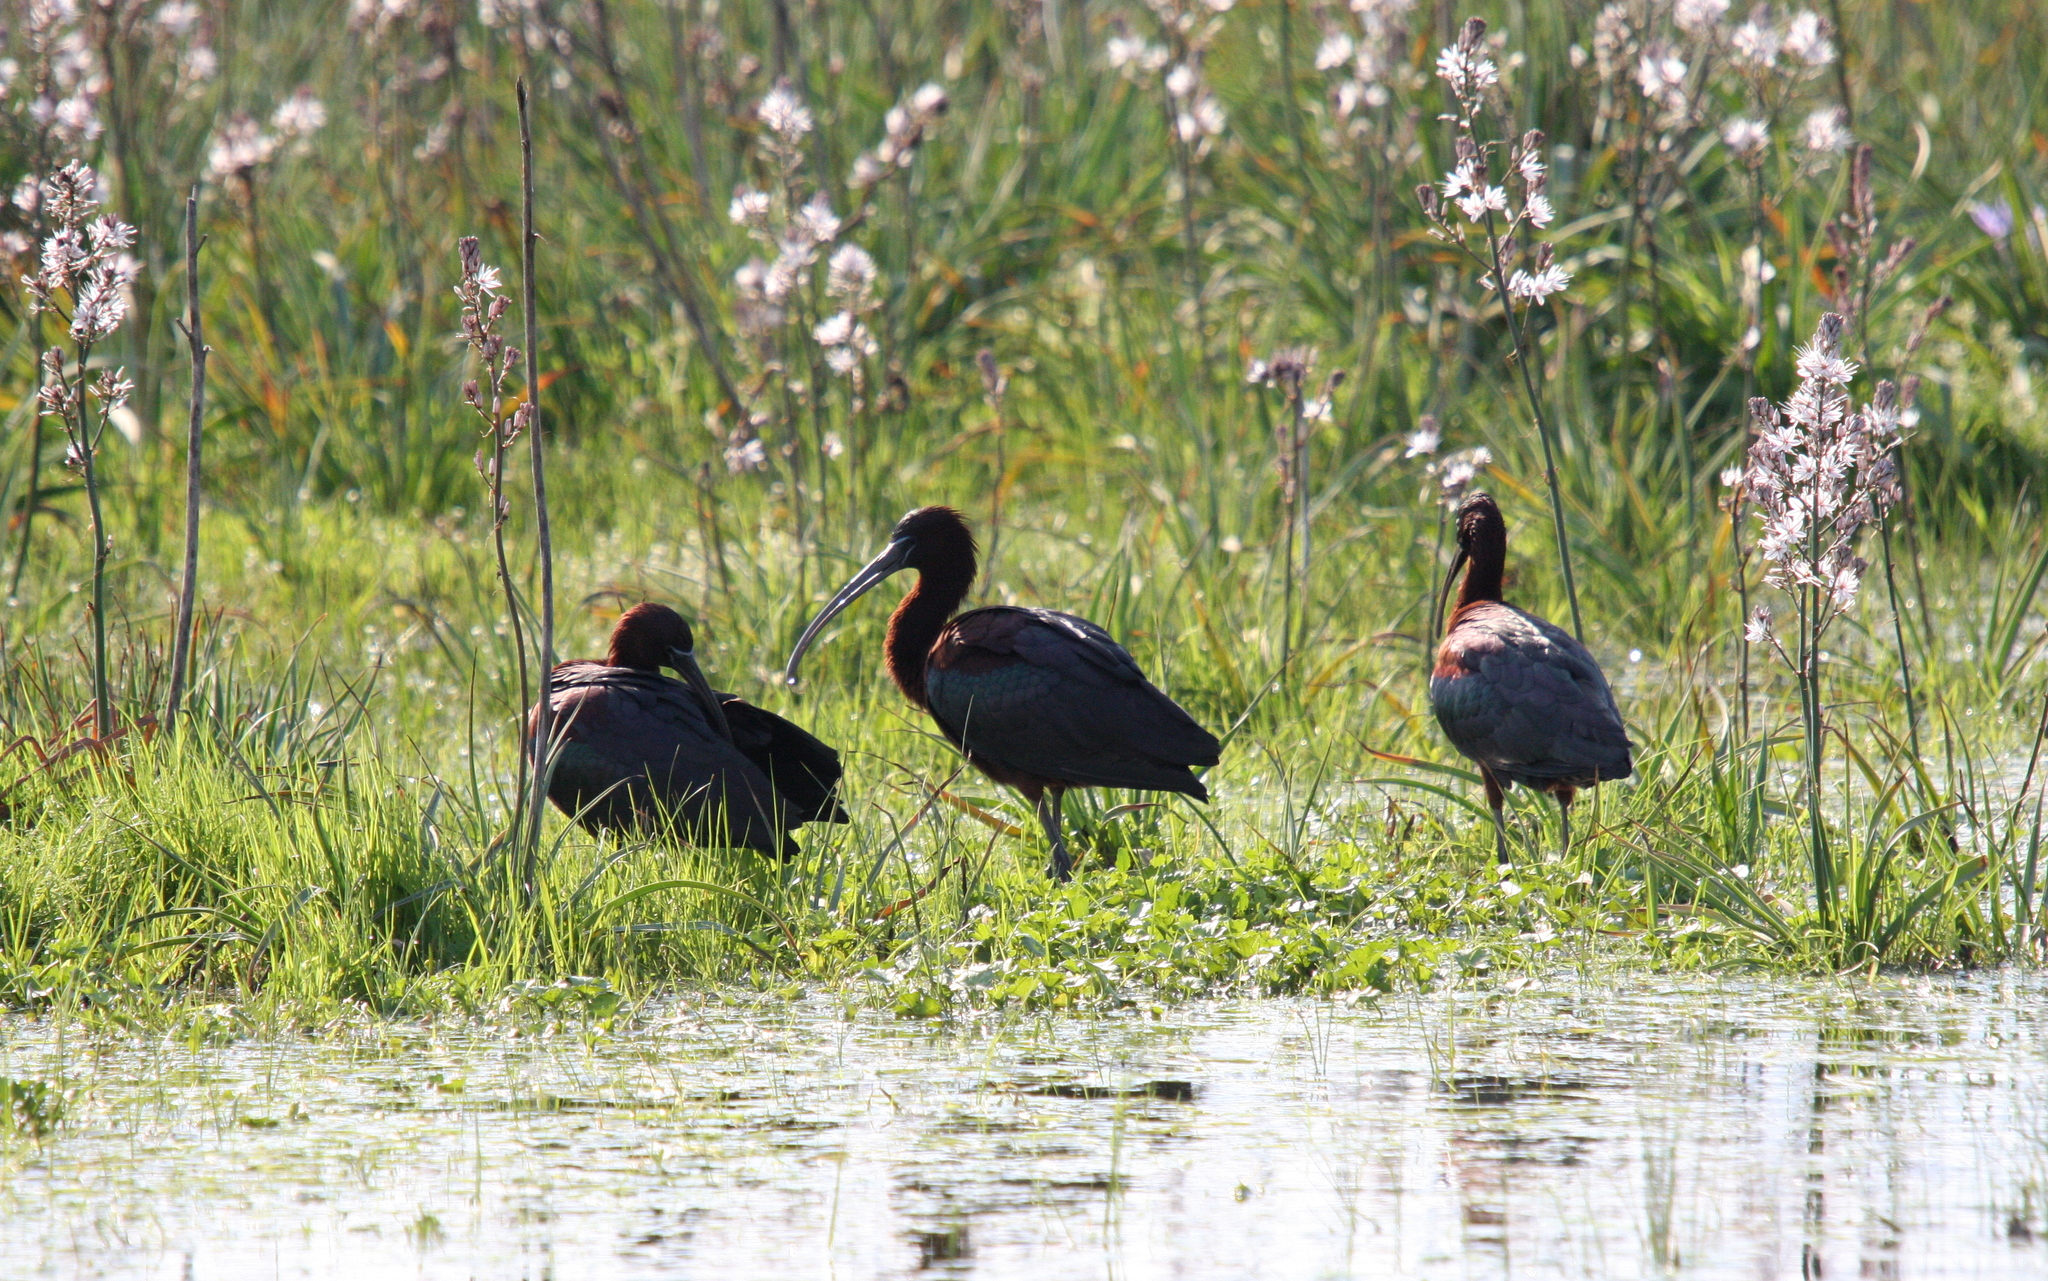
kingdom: Animalia
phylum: Chordata
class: Aves
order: Pelecaniformes
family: Threskiornithidae
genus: Plegadis
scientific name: Plegadis falcinellus
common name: Glossy ibis
